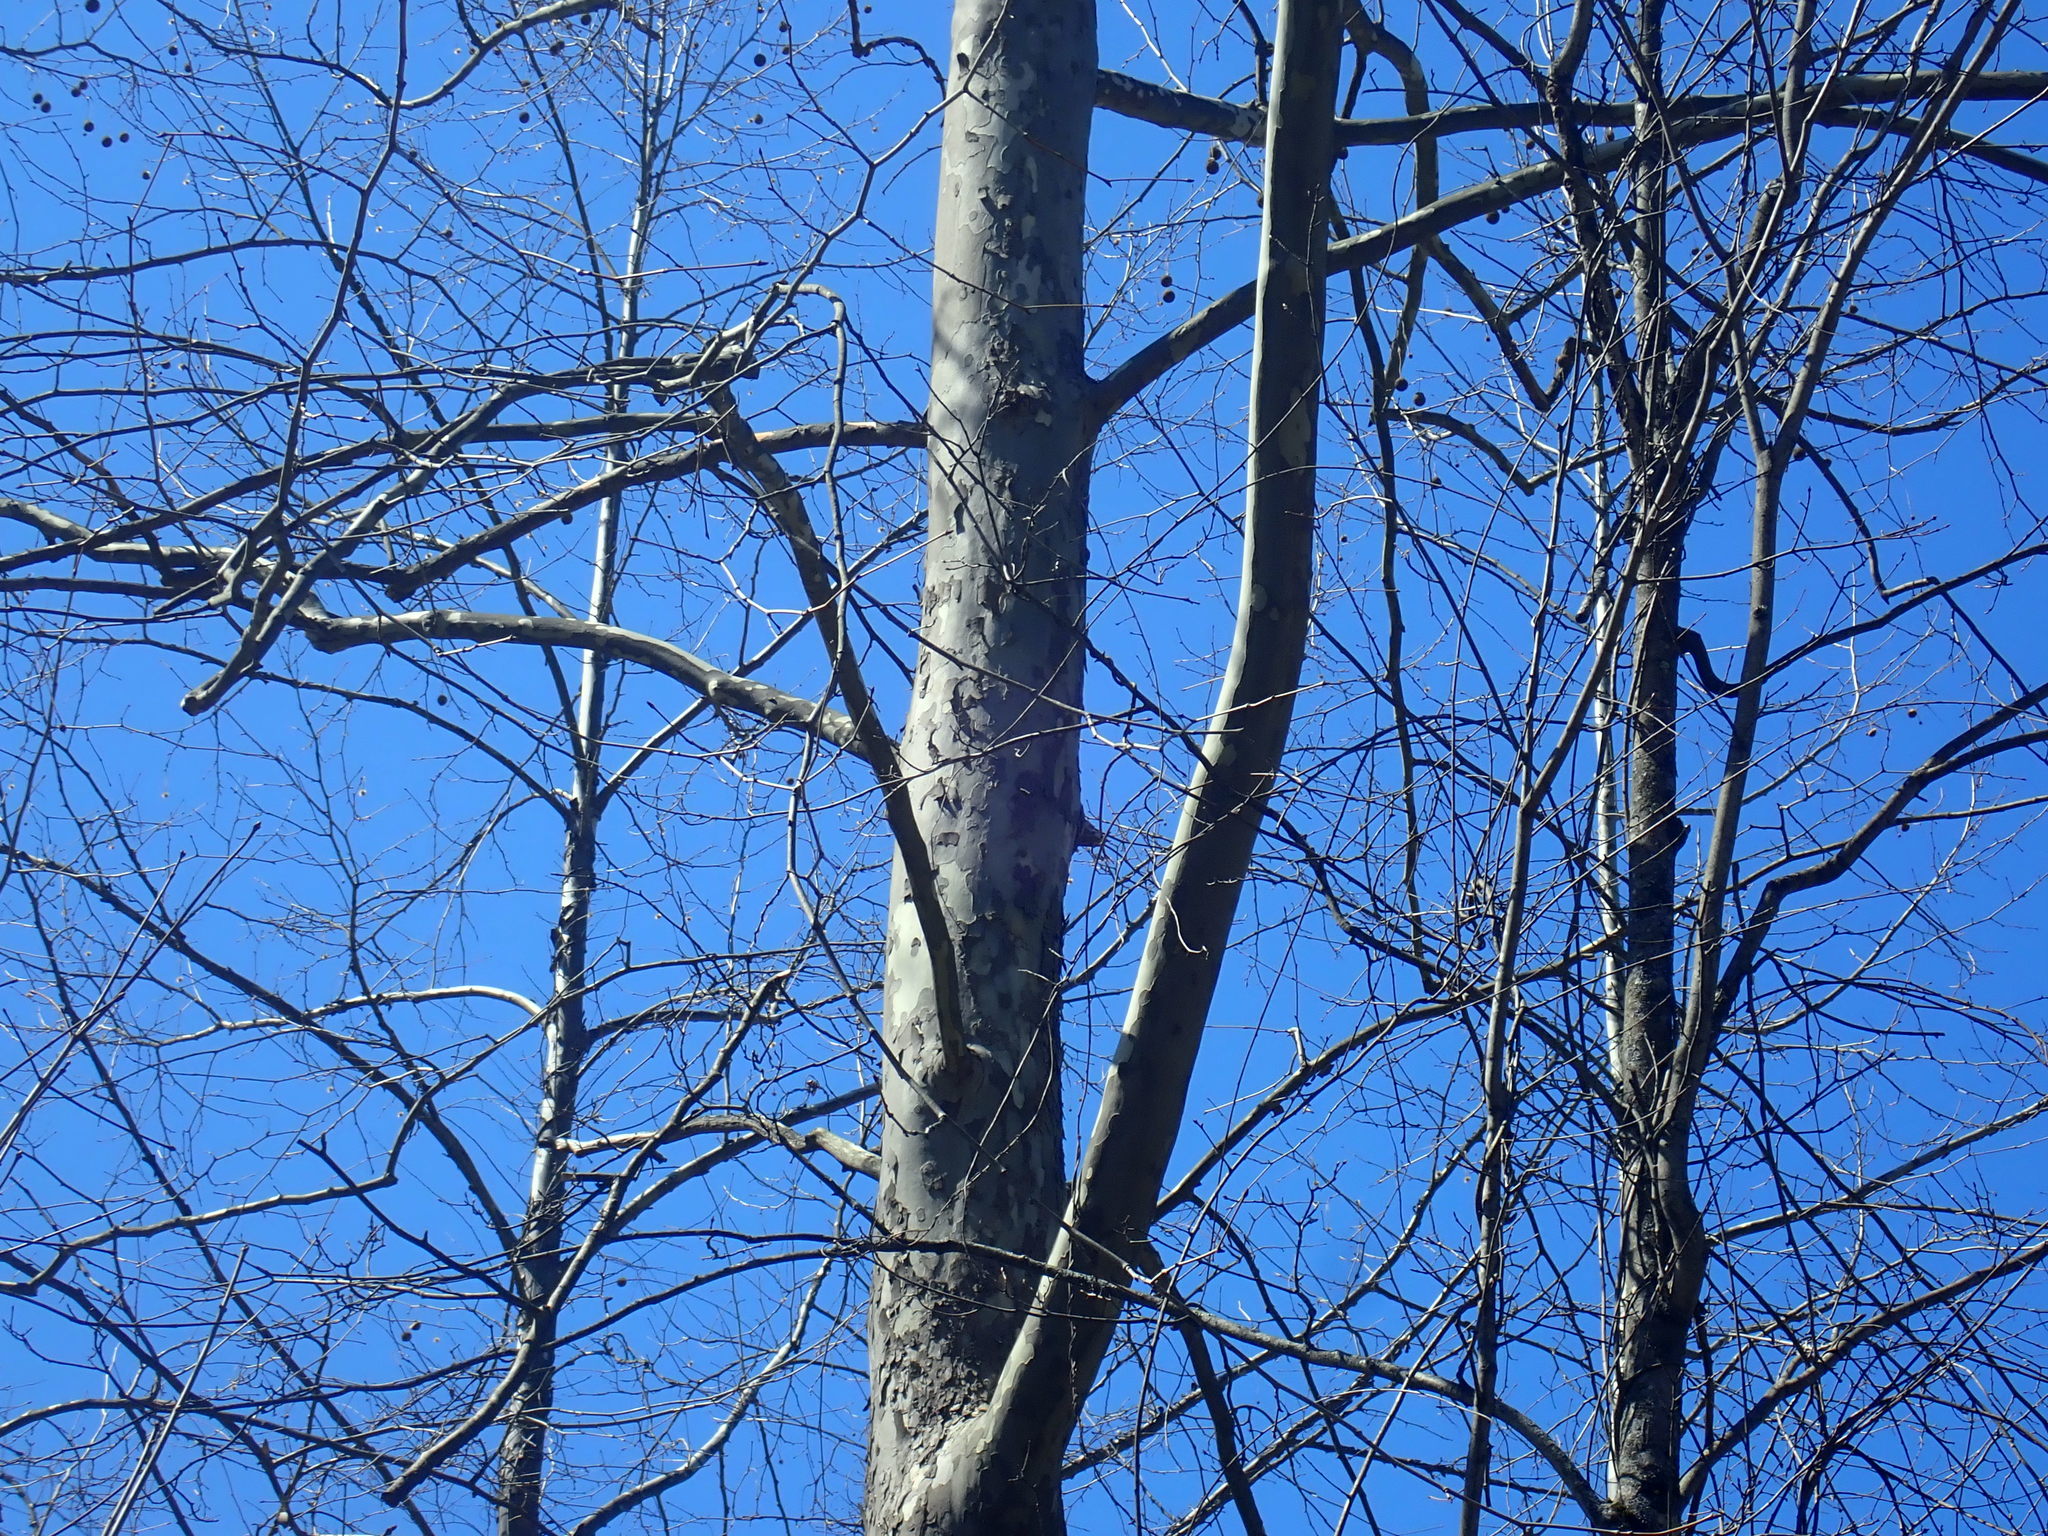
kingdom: Plantae
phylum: Tracheophyta
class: Magnoliopsida
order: Proteales
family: Platanaceae
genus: Platanus
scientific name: Platanus occidentalis
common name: American sycamore
